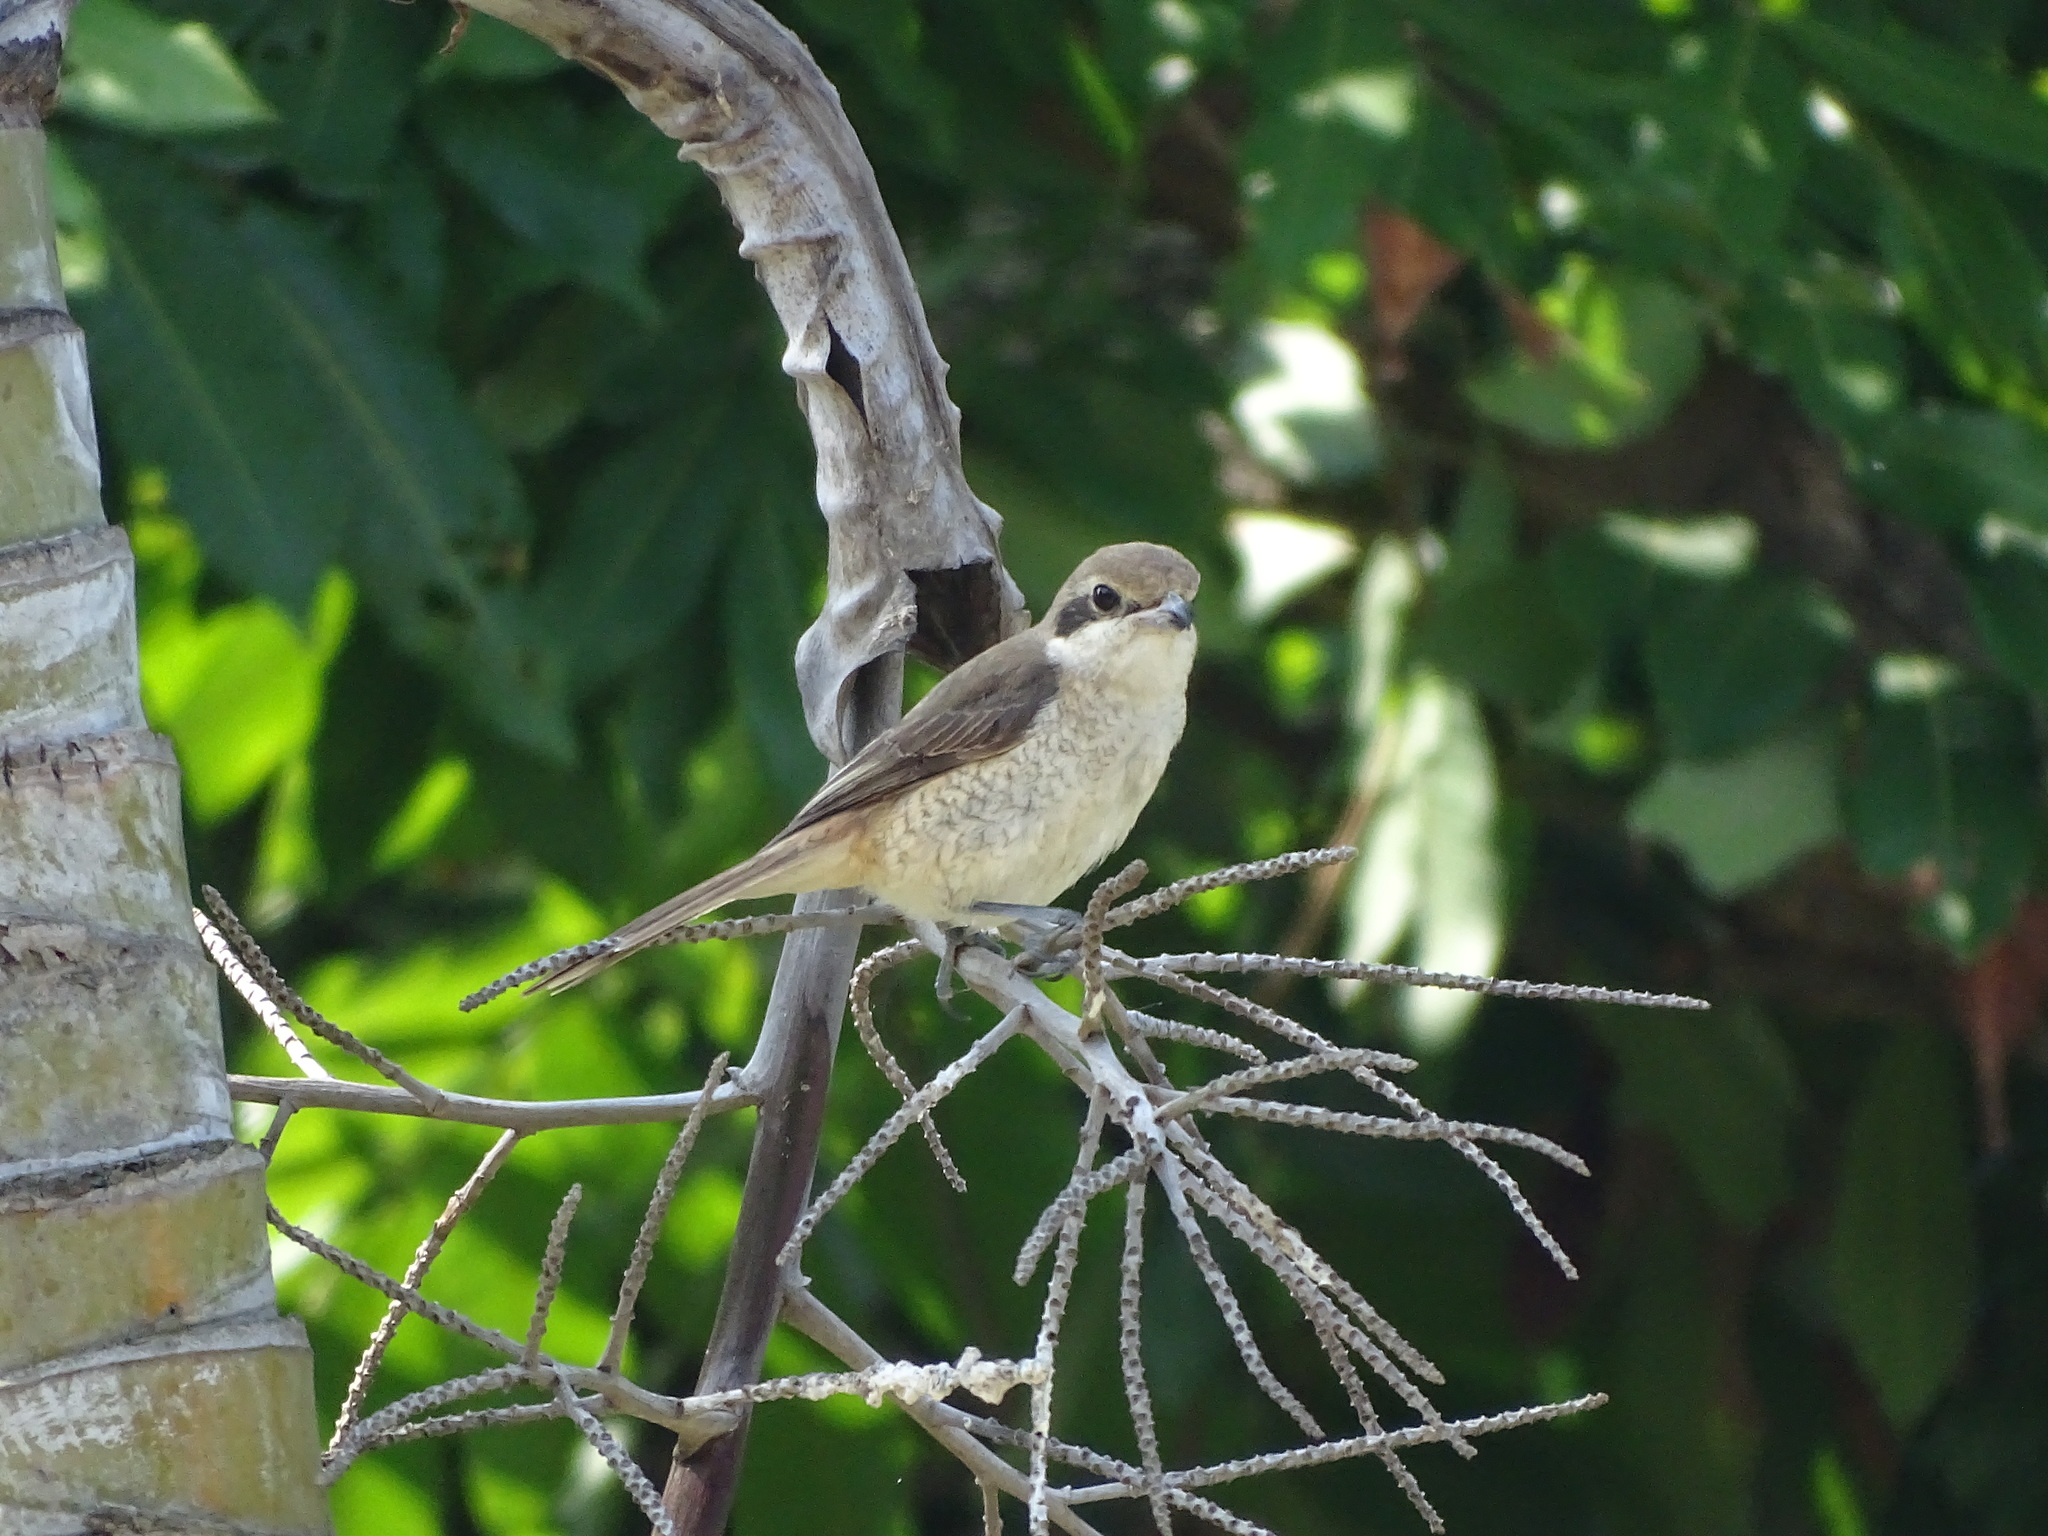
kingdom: Animalia
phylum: Chordata
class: Aves
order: Passeriformes
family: Laniidae
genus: Lanius
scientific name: Lanius cristatus
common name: Brown shrike
